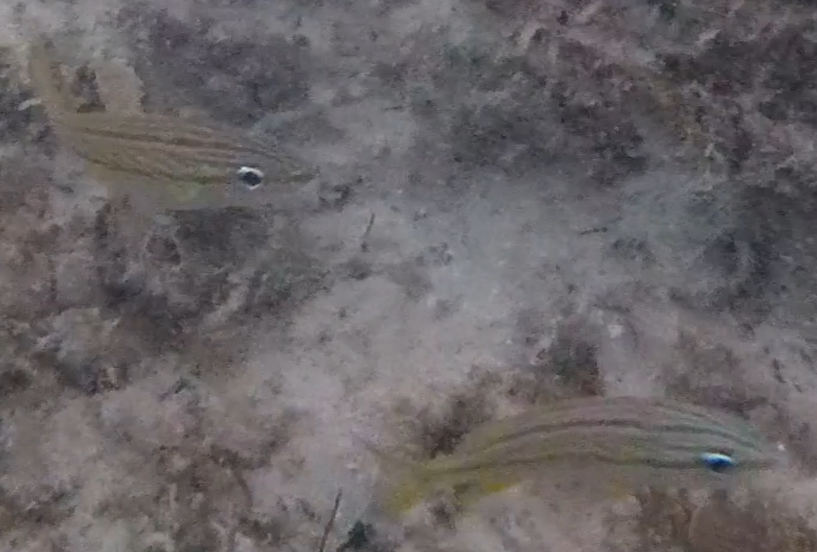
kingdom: Animalia
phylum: Chordata
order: Perciformes
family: Haemulidae
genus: Haemulon
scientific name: Haemulon flavolineatum
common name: French grunt
